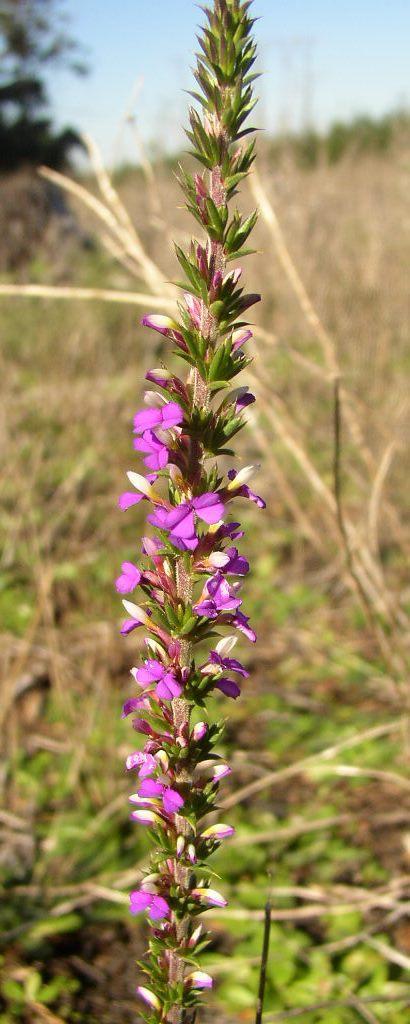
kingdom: Plantae
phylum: Tracheophyta
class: Magnoliopsida
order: Fabales
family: Polygalaceae
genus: Muraltia
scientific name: Muraltia heisteria
